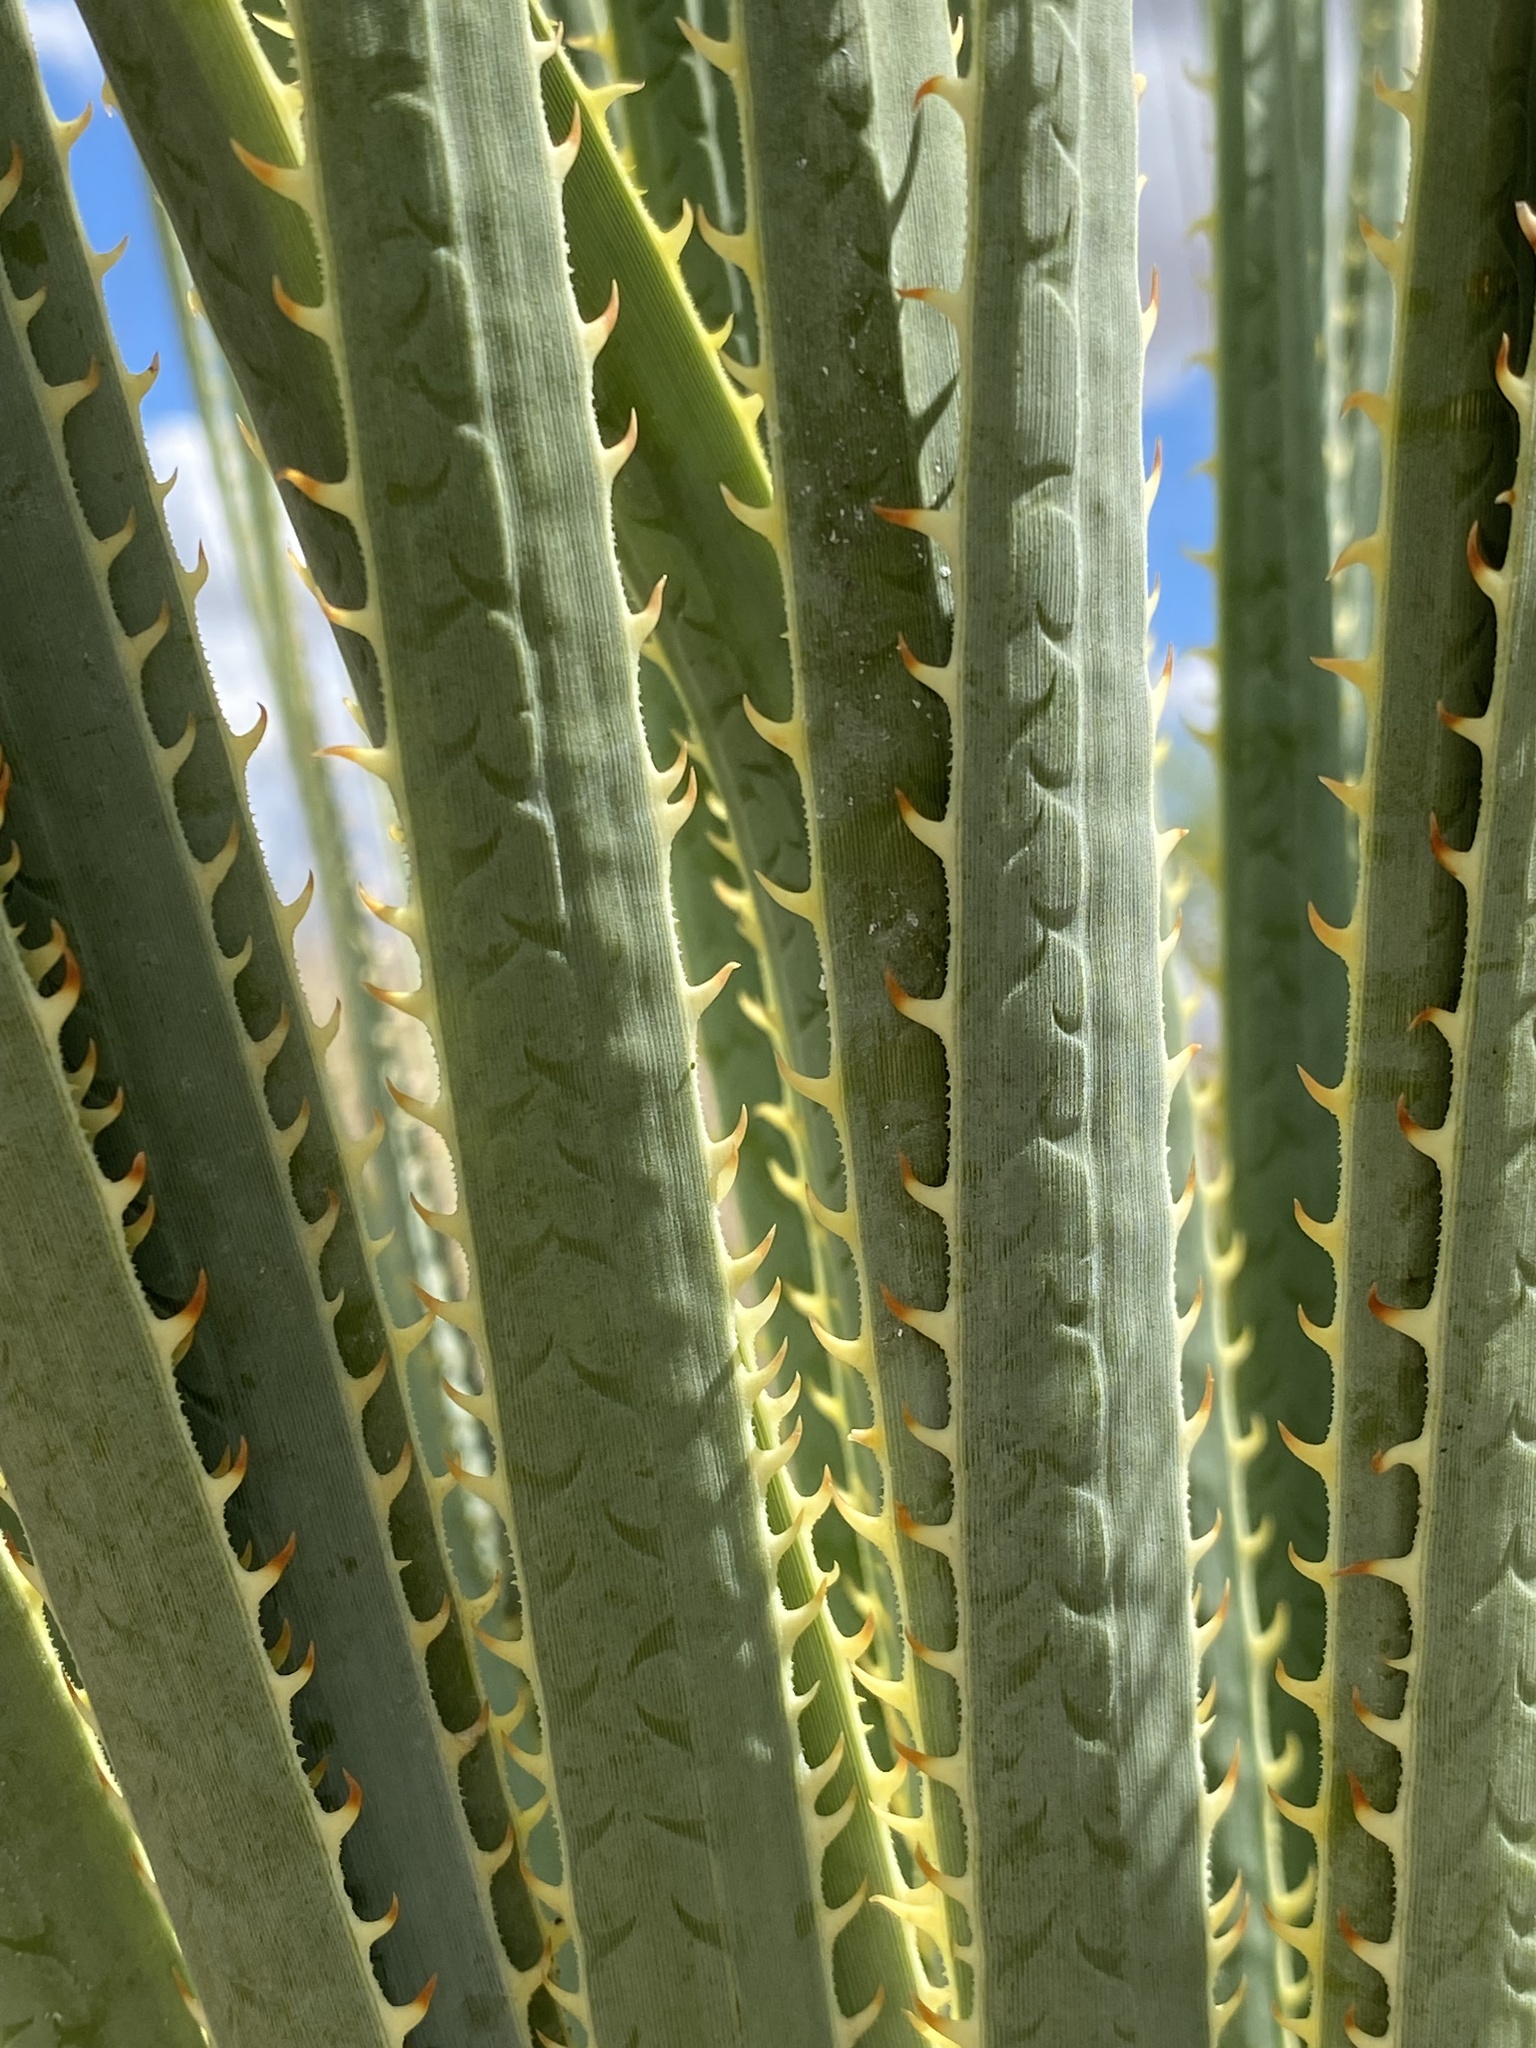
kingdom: Plantae
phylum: Tracheophyta
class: Liliopsida
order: Asparagales
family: Asparagaceae
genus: Dasylirion
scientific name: Dasylirion wheeleri
